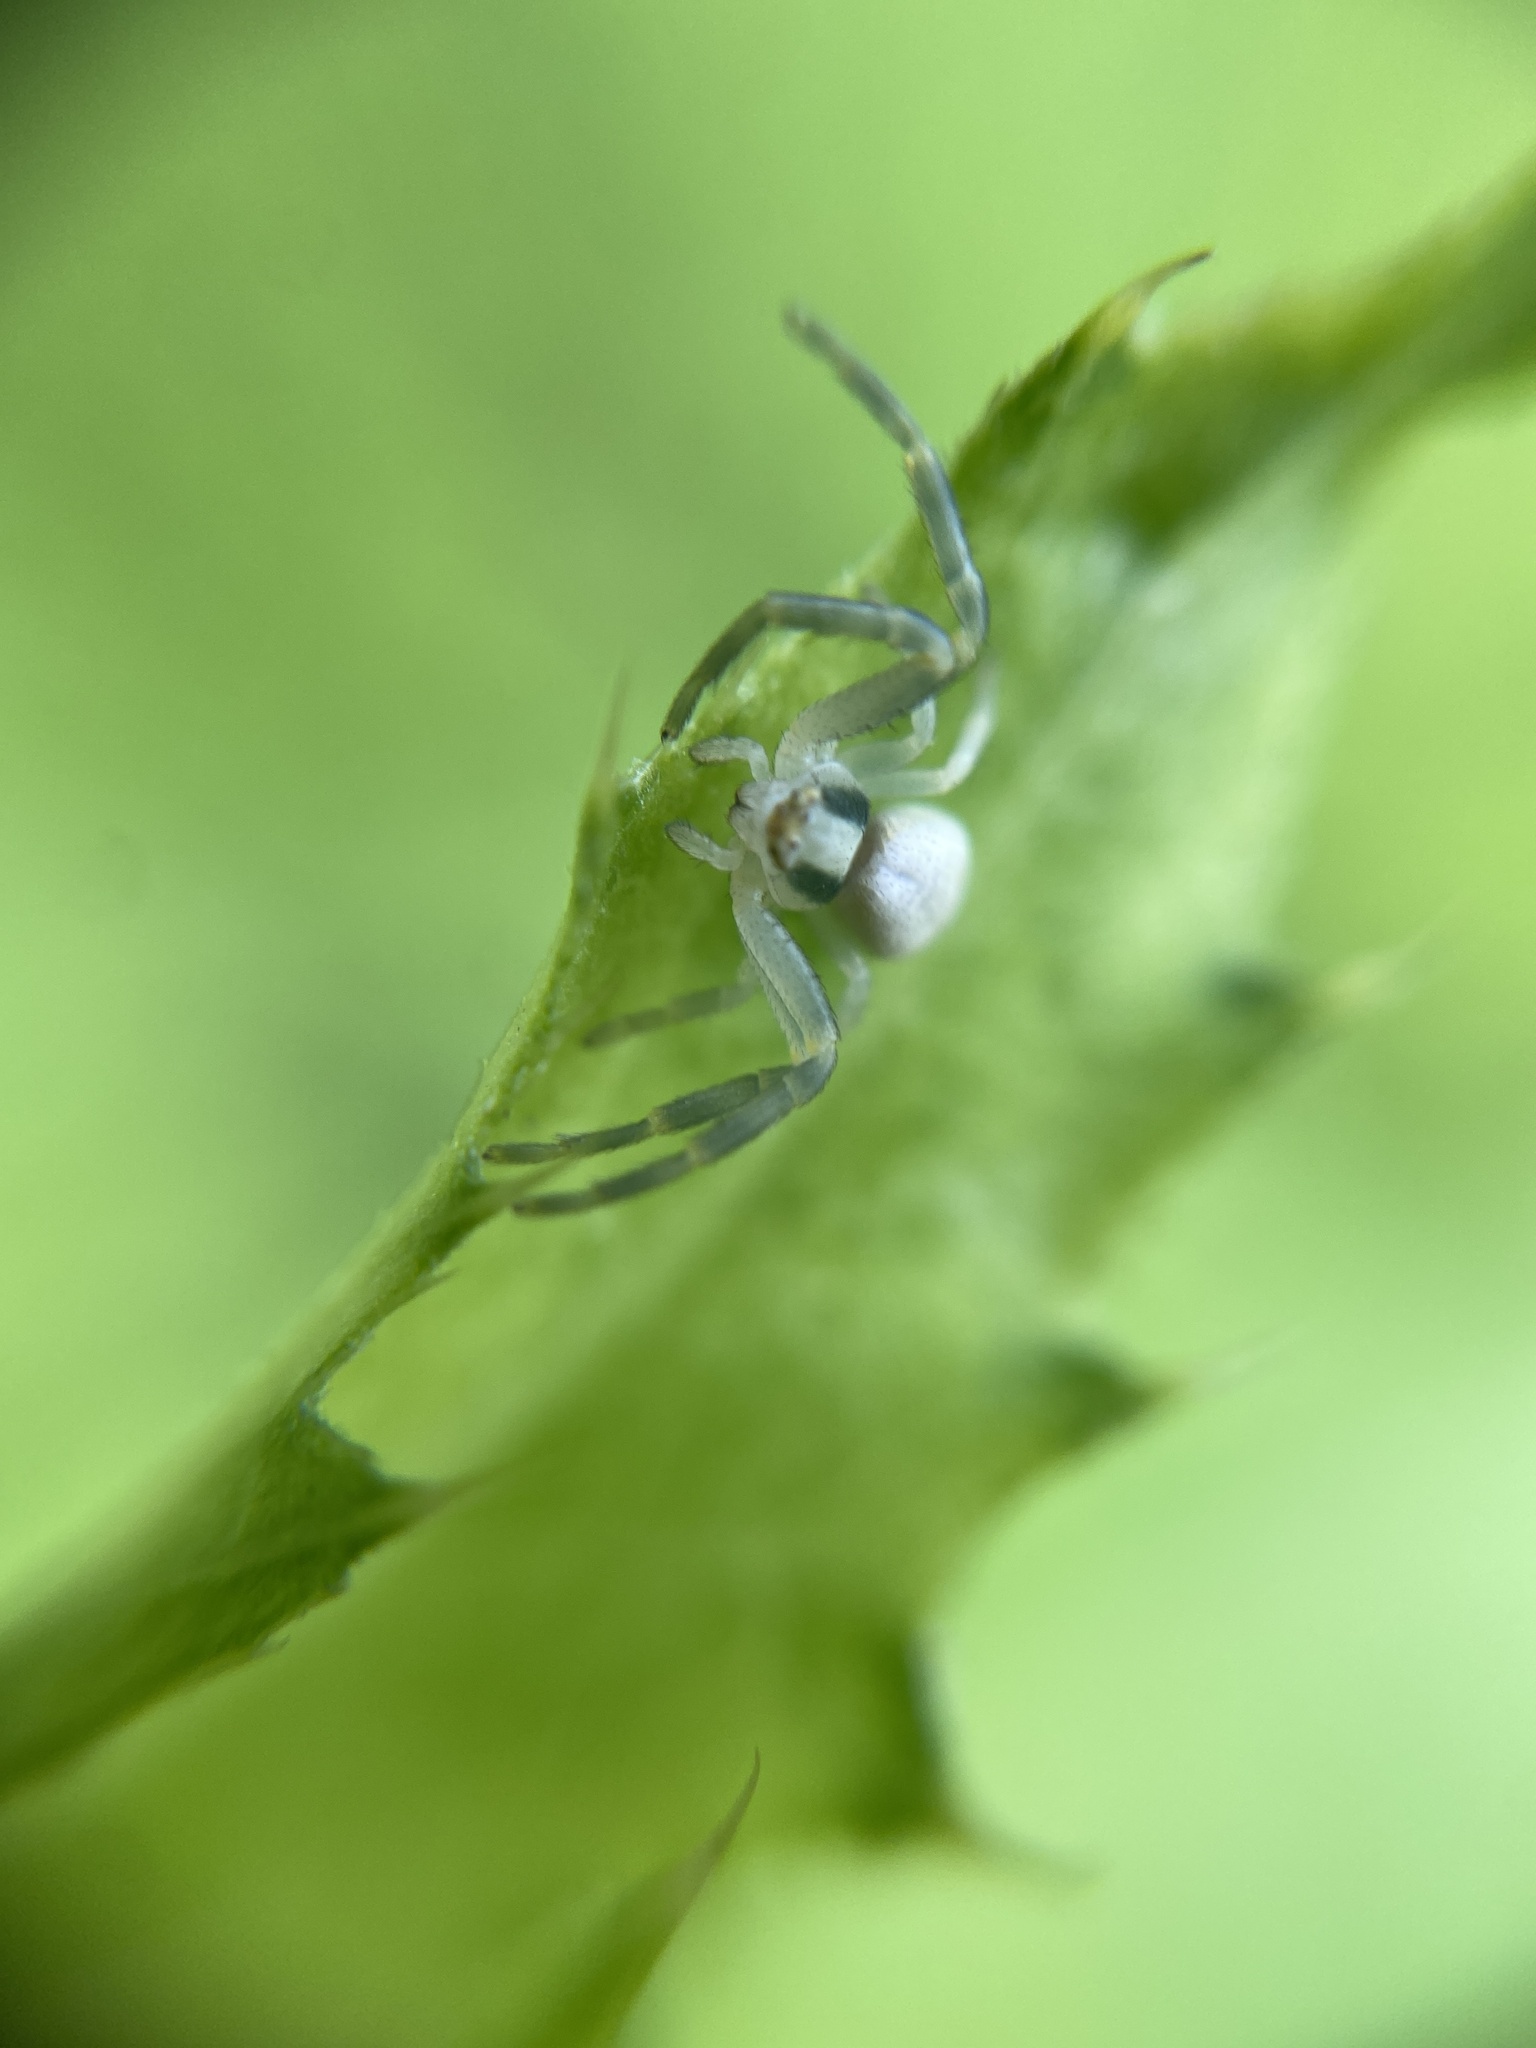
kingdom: Animalia
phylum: Arthropoda
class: Arachnida
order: Araneae
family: Thomisidae
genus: Misumena
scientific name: Misumena vatia
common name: Goldenrod crab spider
